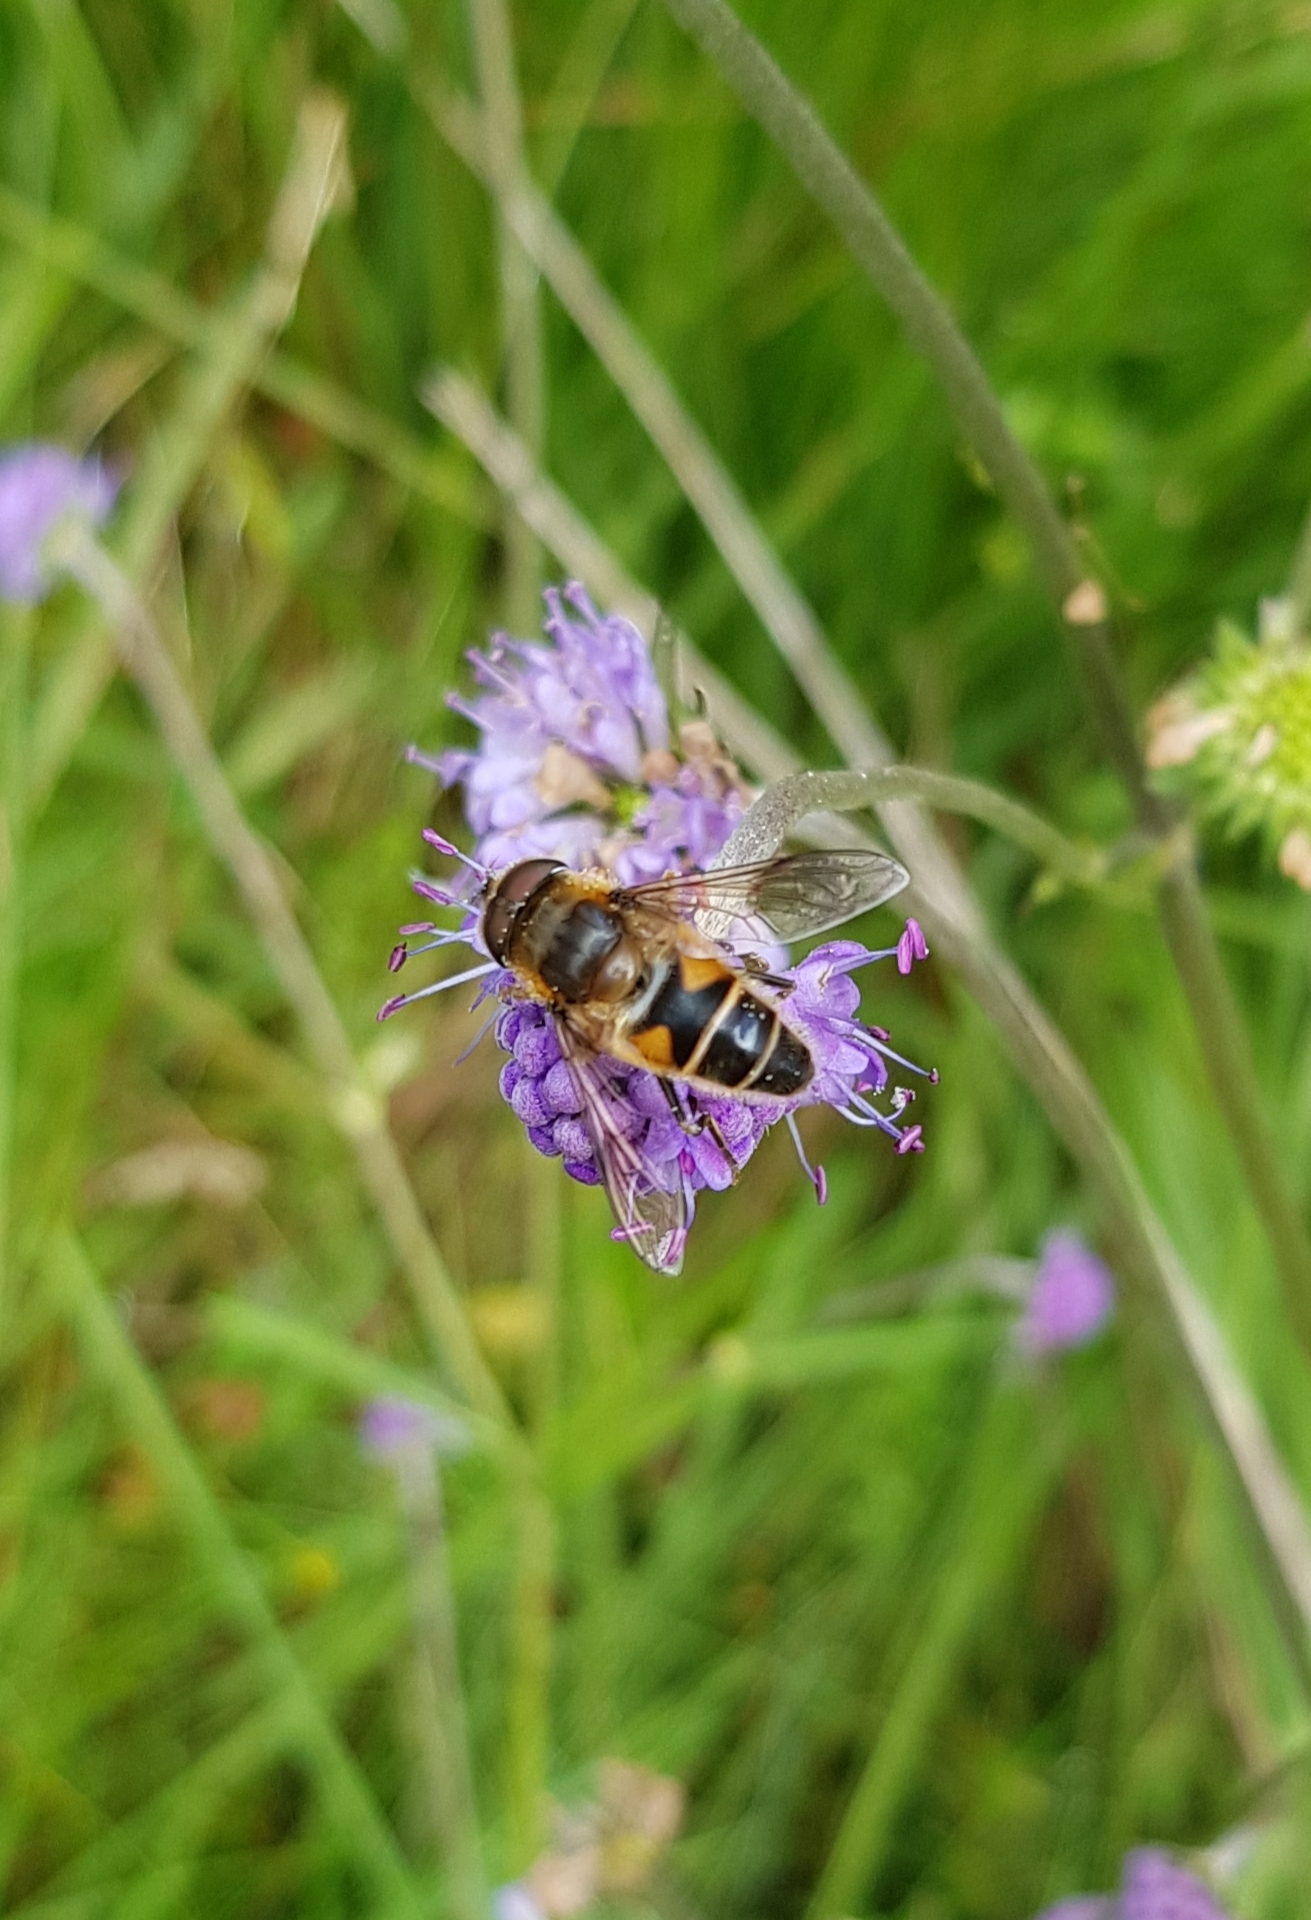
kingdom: Animalia
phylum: Arthropoda
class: Insecta
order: Diptera
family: Syrphidae
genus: Eristalis
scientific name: Eristalis
